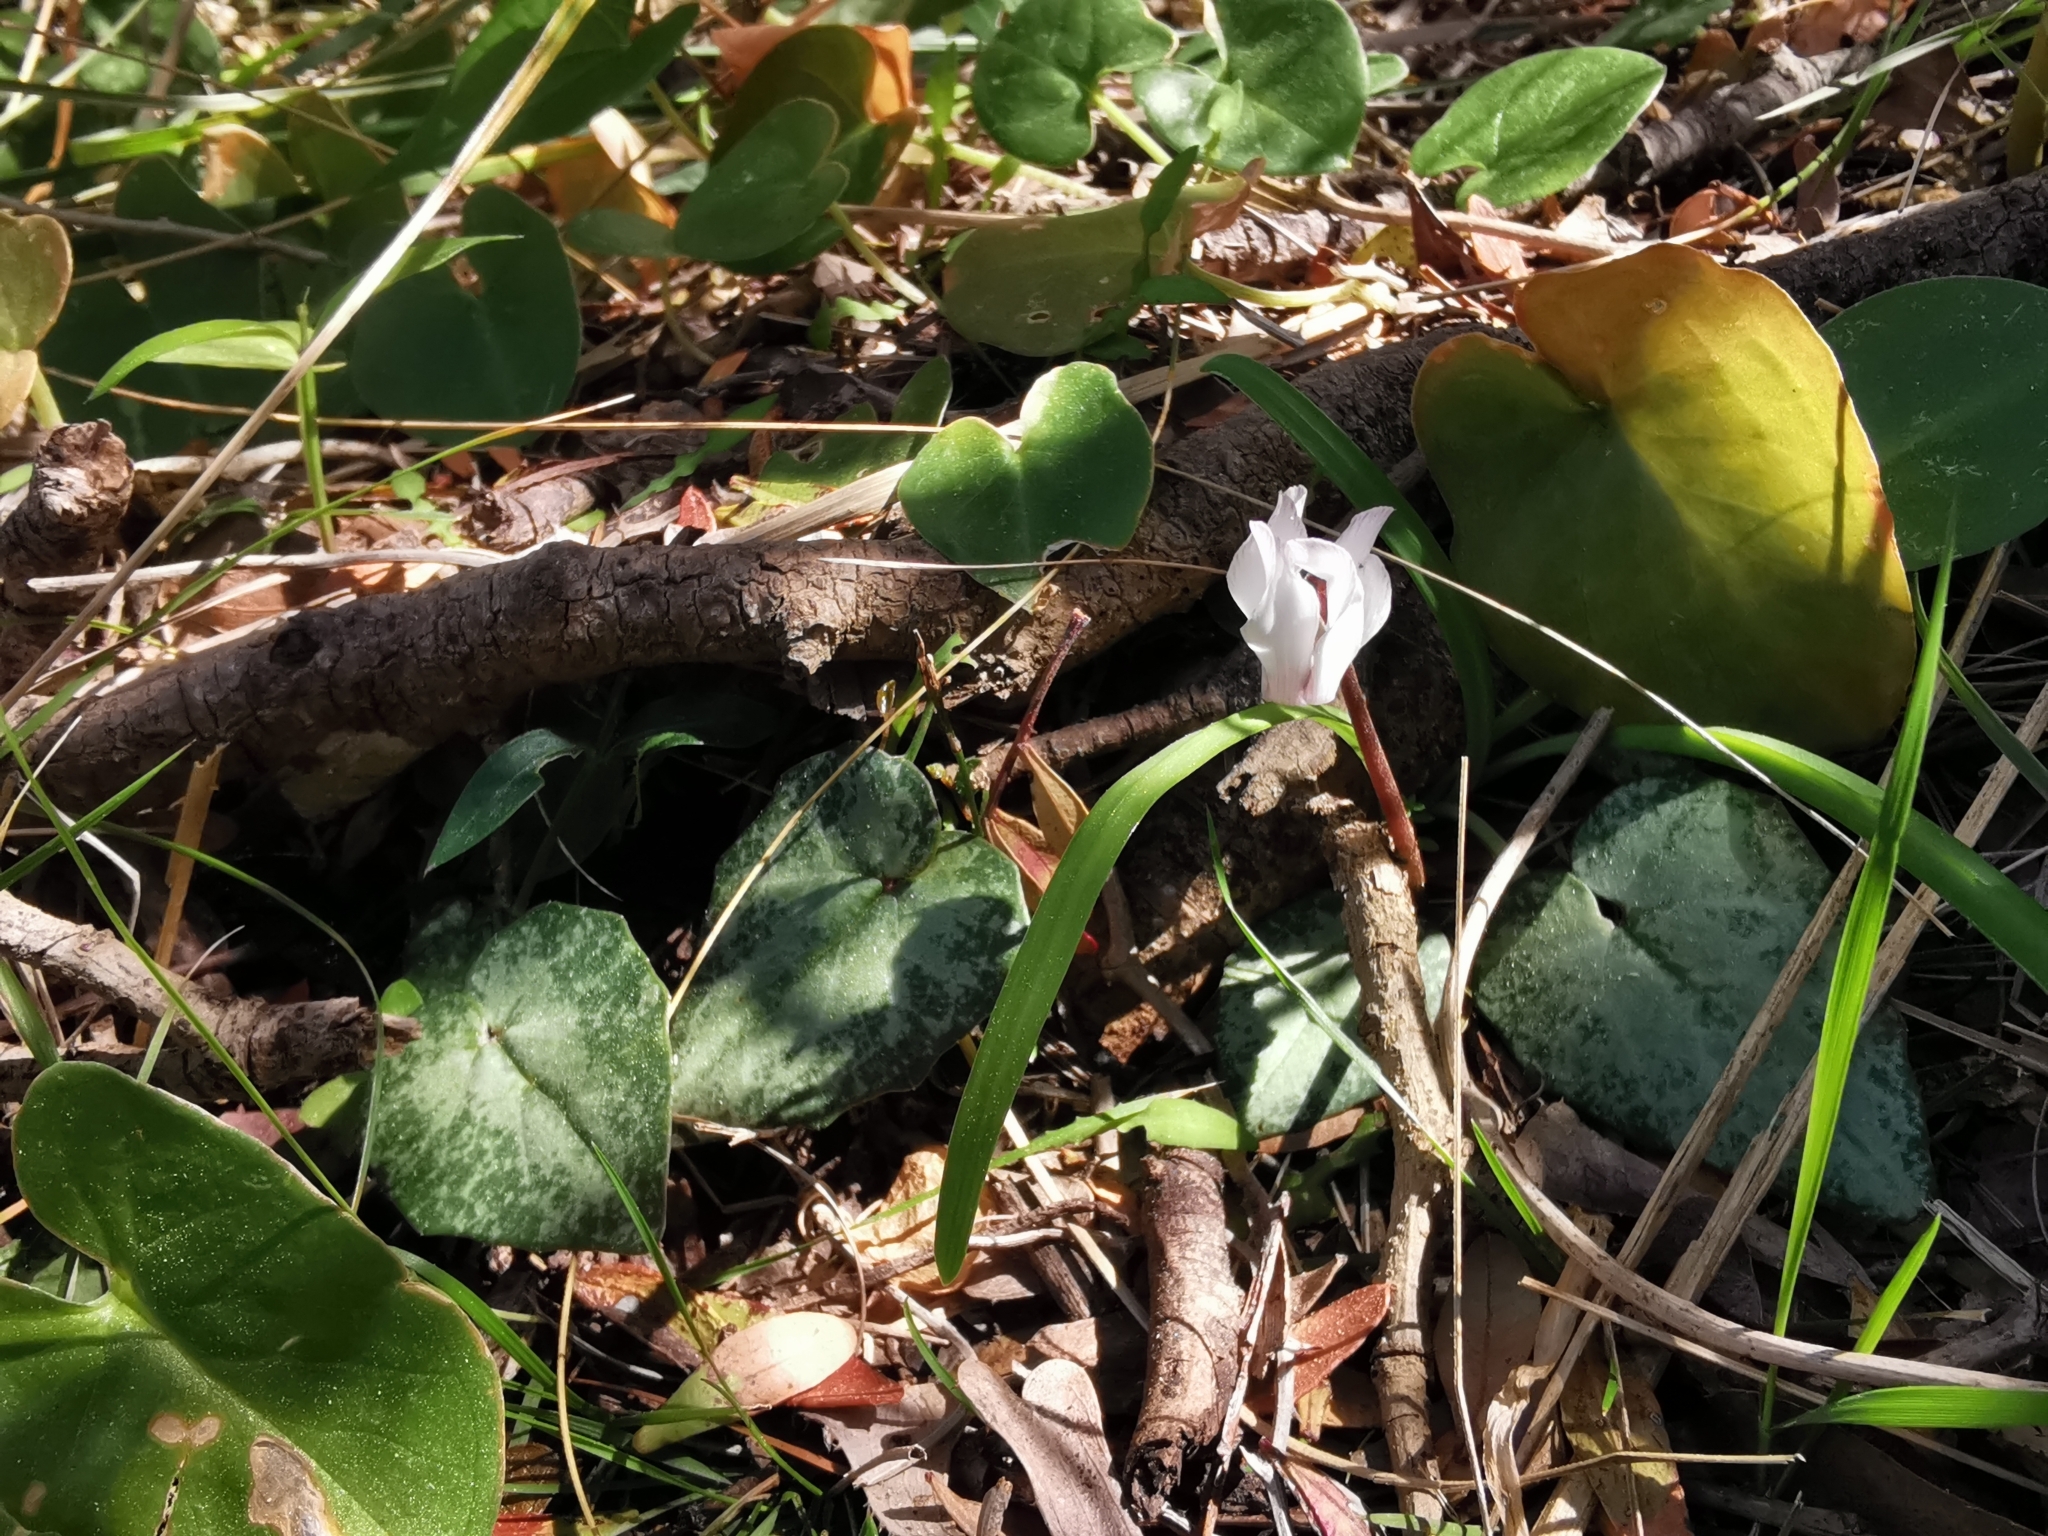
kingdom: Plantae
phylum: Tracheophyta
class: Magnoliopsida
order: Ericales
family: Primulaceae
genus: Cyclamen
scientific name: Cyclamen balearicum
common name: Majorca cyclamen
